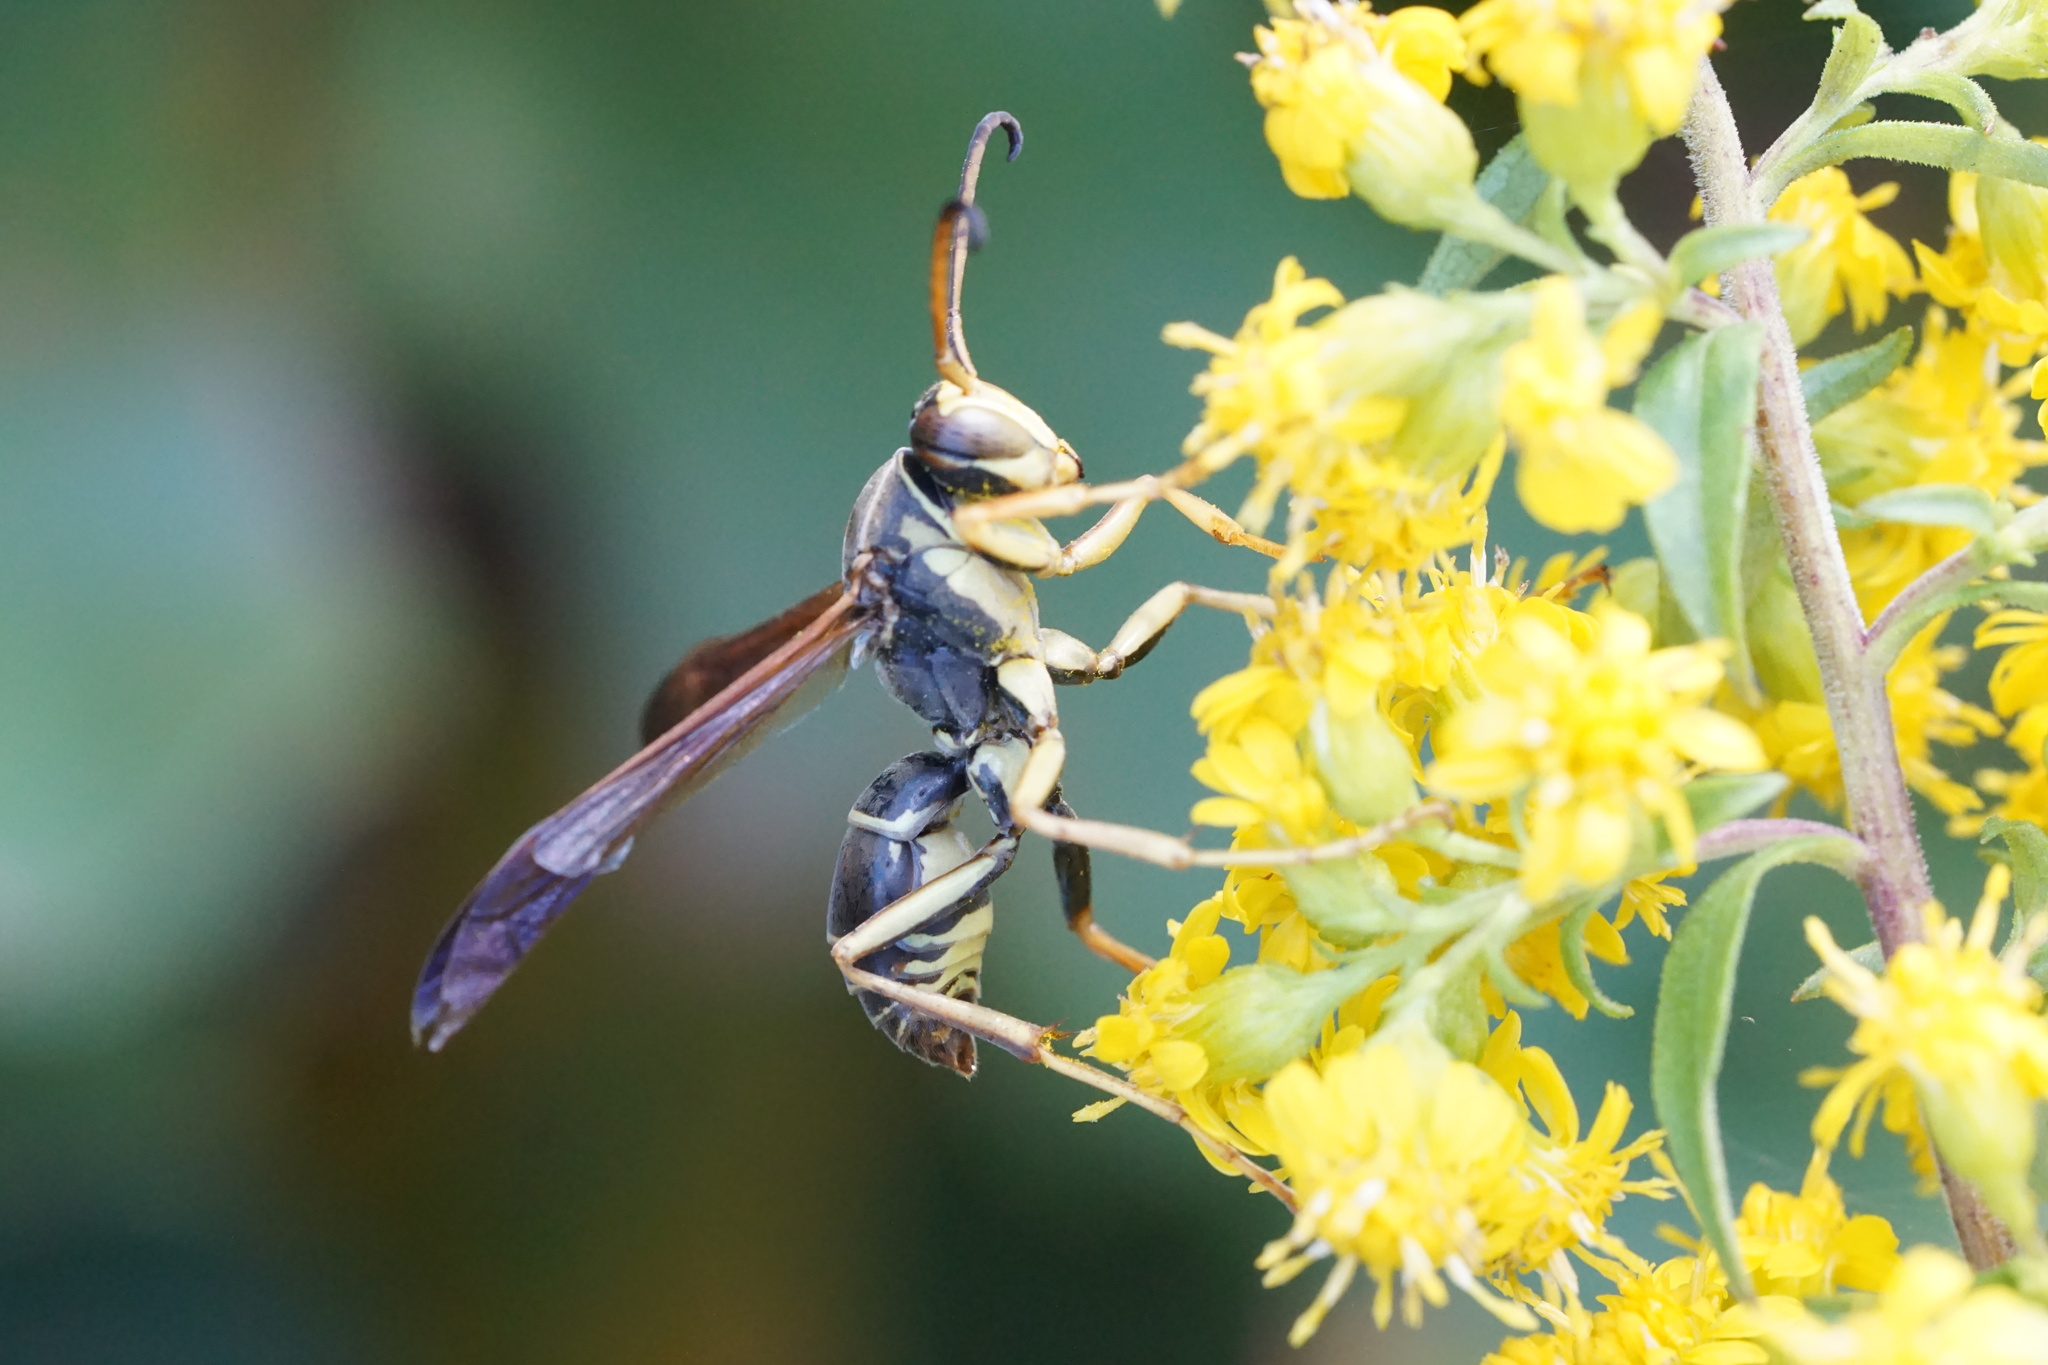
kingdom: Animalia
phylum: Arthropoda
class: Insecta
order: Hymenoptera
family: Eumenidae
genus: Polistes
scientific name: Polistes fuscatus
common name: Dark paper wasp
